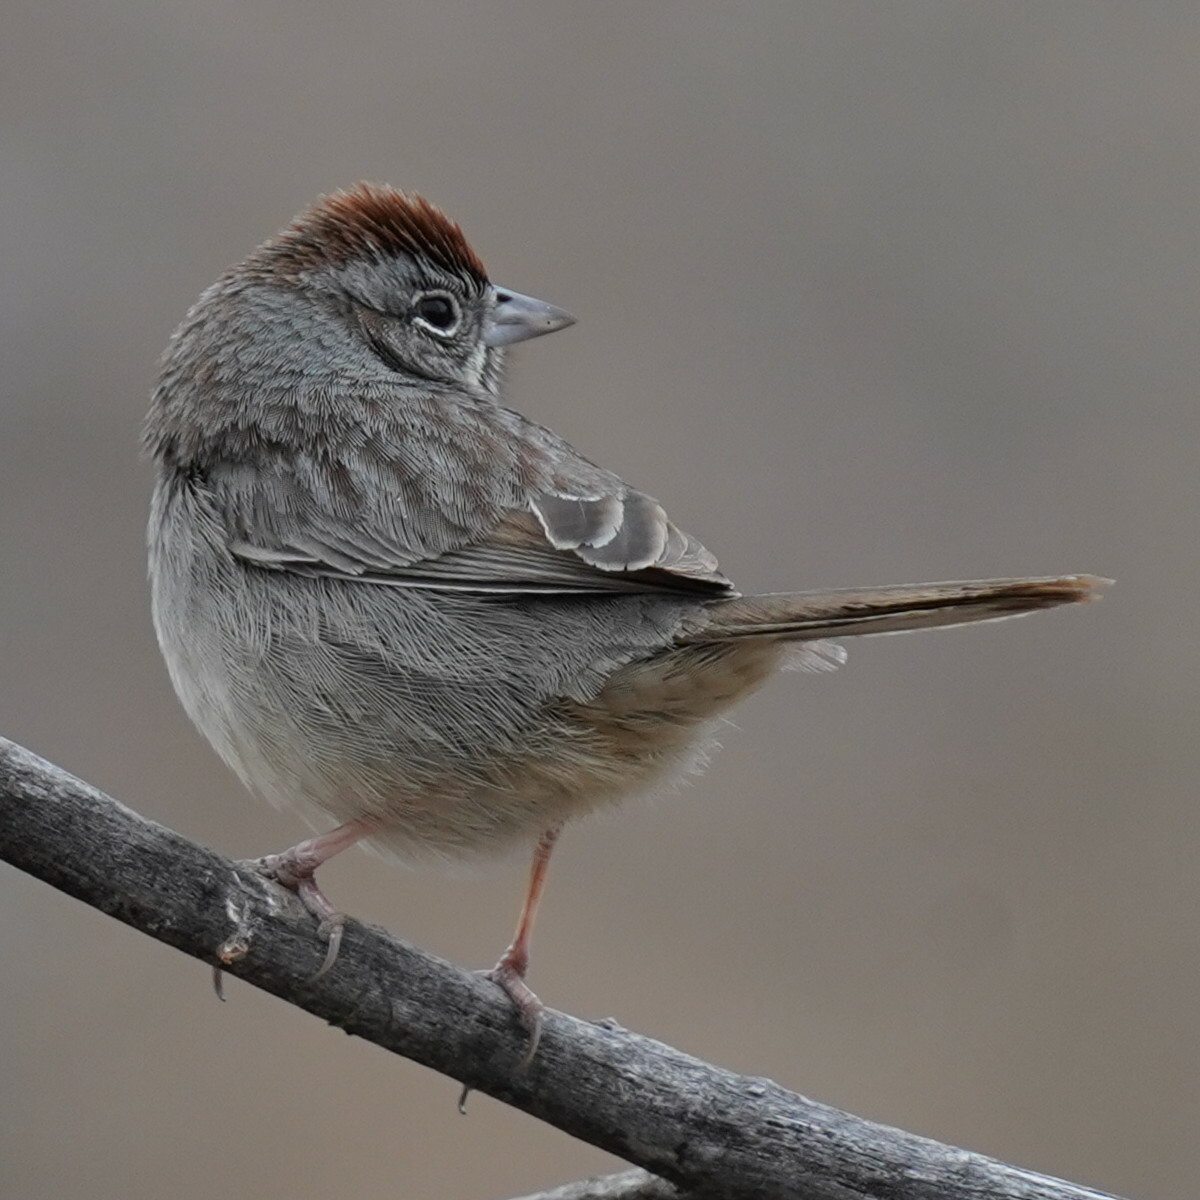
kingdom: Animalia
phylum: Chordata
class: Aves
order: Passeriformes
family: Passerellidae
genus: Aimophila
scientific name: Aimophila ruficeps
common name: Rufous-crowned sparrow
